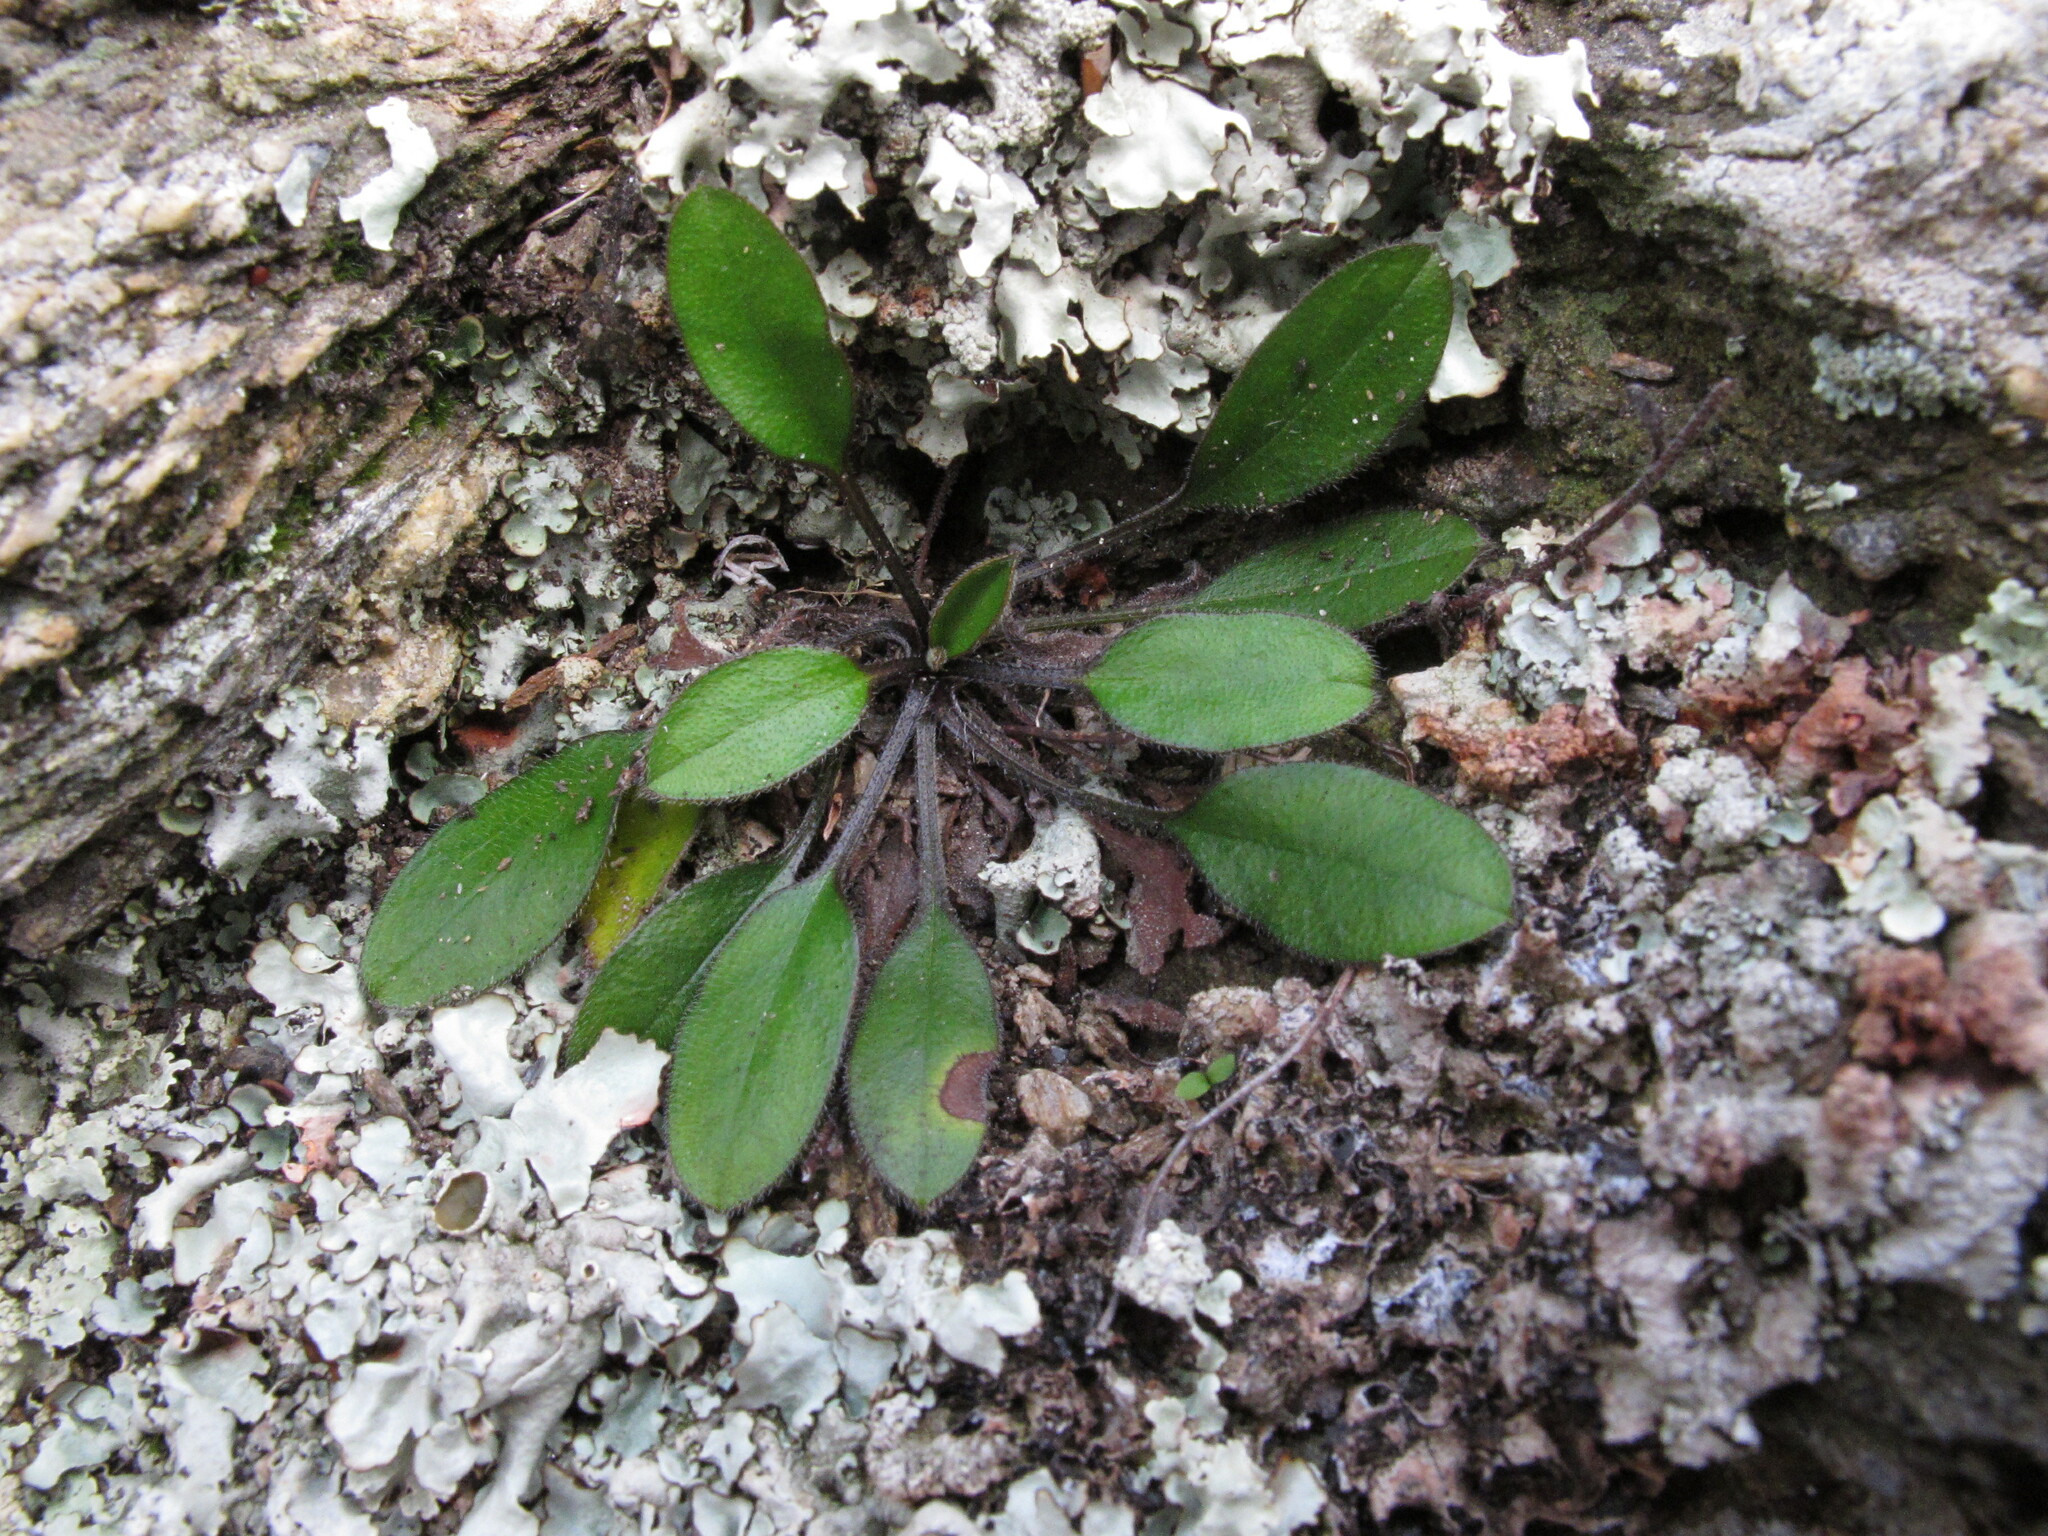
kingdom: Plantae
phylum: Tracheophyta
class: Magnoliopsida
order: Boraginales
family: Boraginaceae
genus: Myosotis
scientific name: Myosotis australis
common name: Australian forget-me-not
